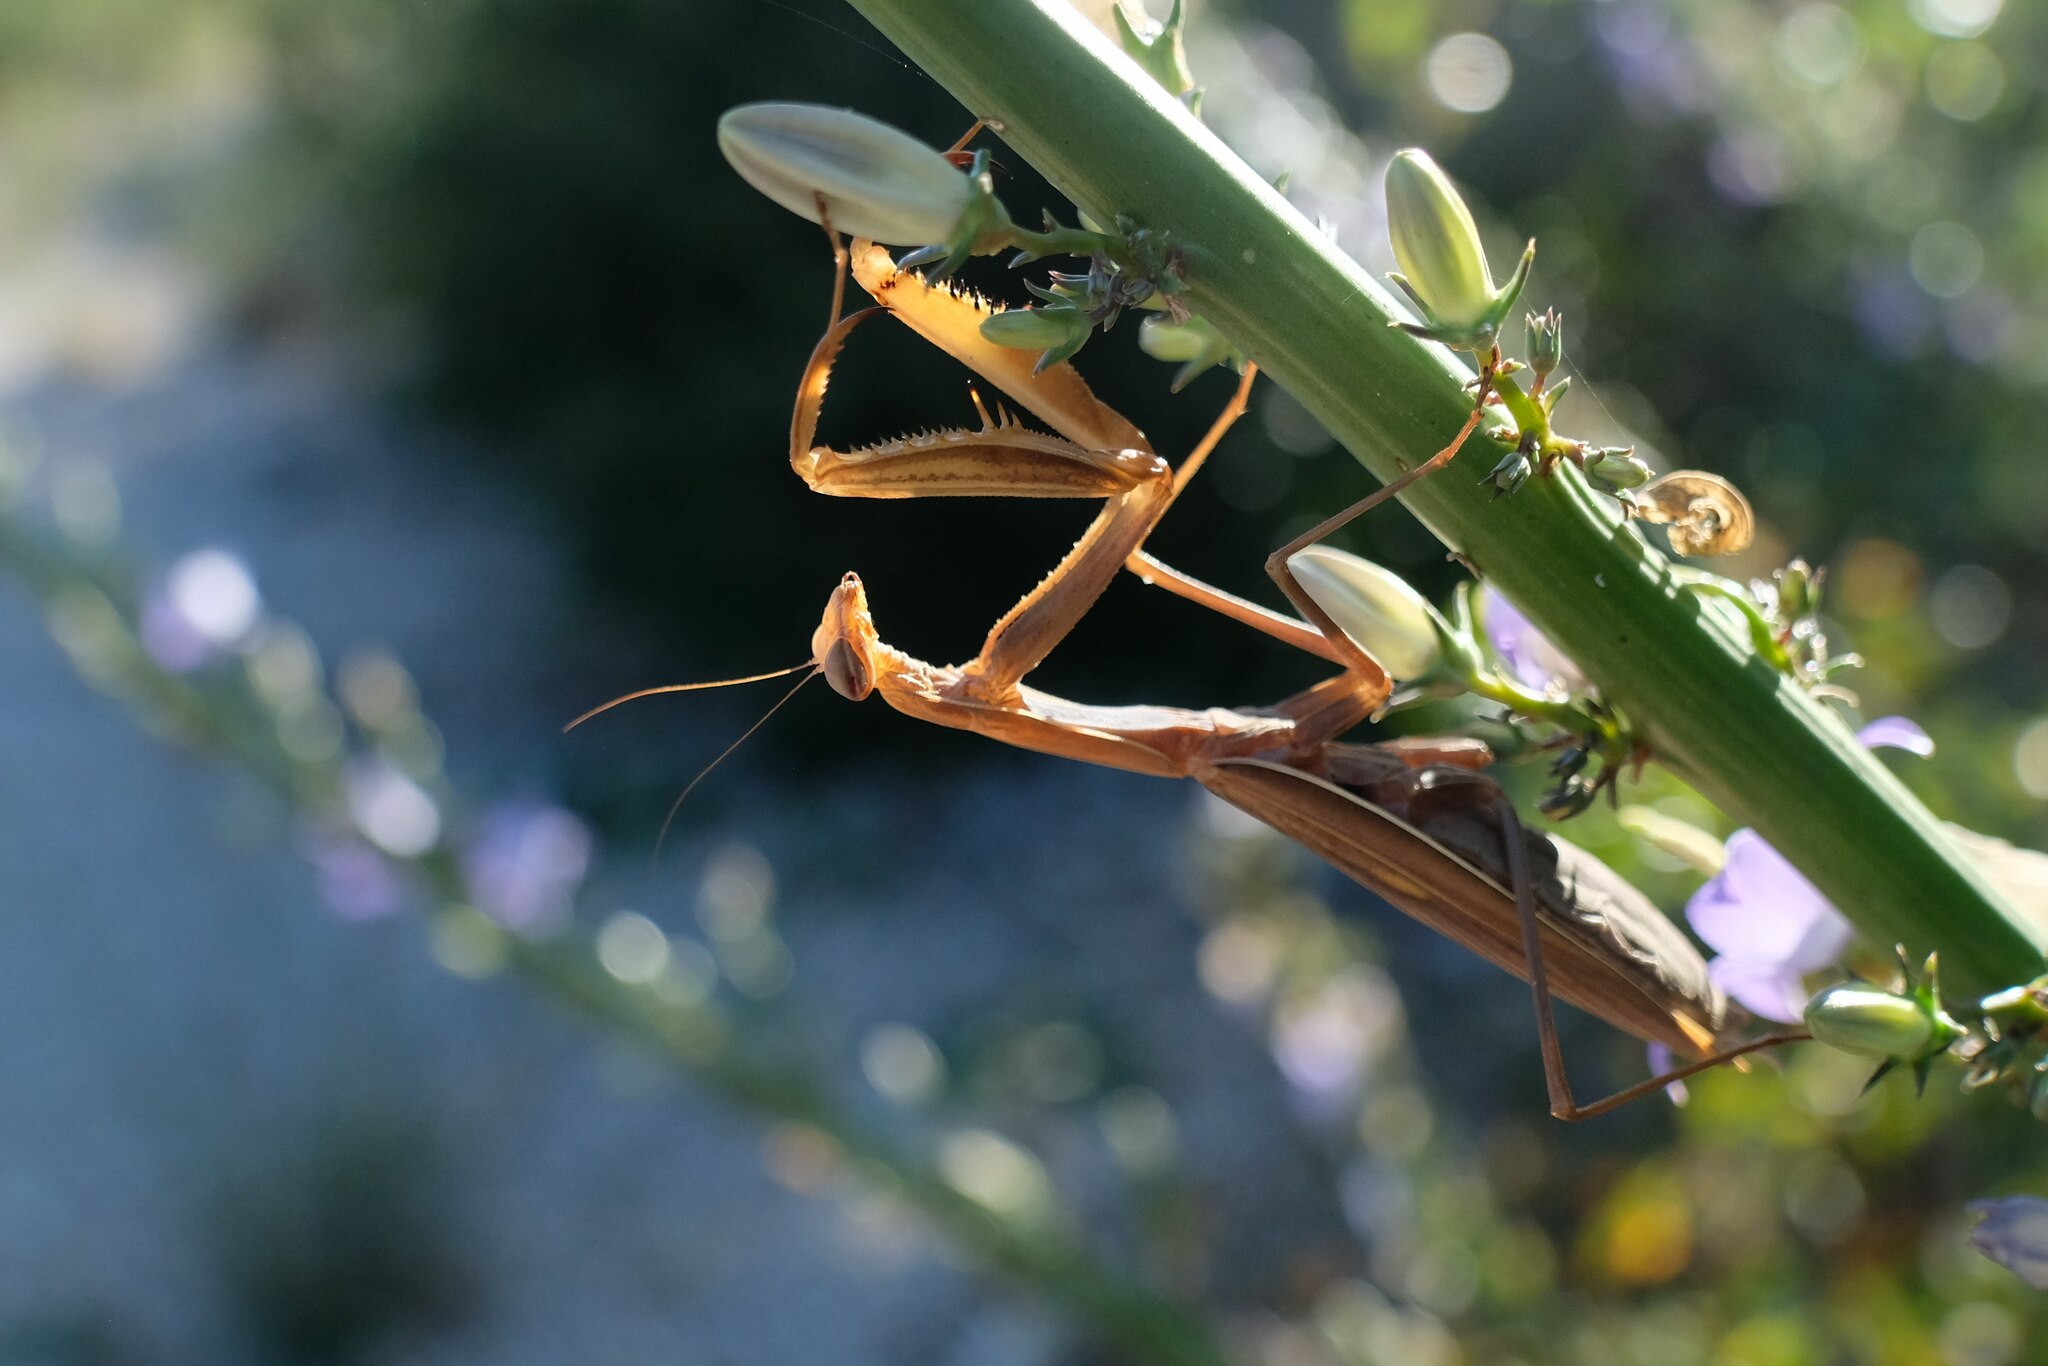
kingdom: Animalia
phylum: Arthropoda
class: Insecta
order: Mantodea
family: Mantidae
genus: Mantis
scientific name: Mantis religiosa
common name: Praying mantis
